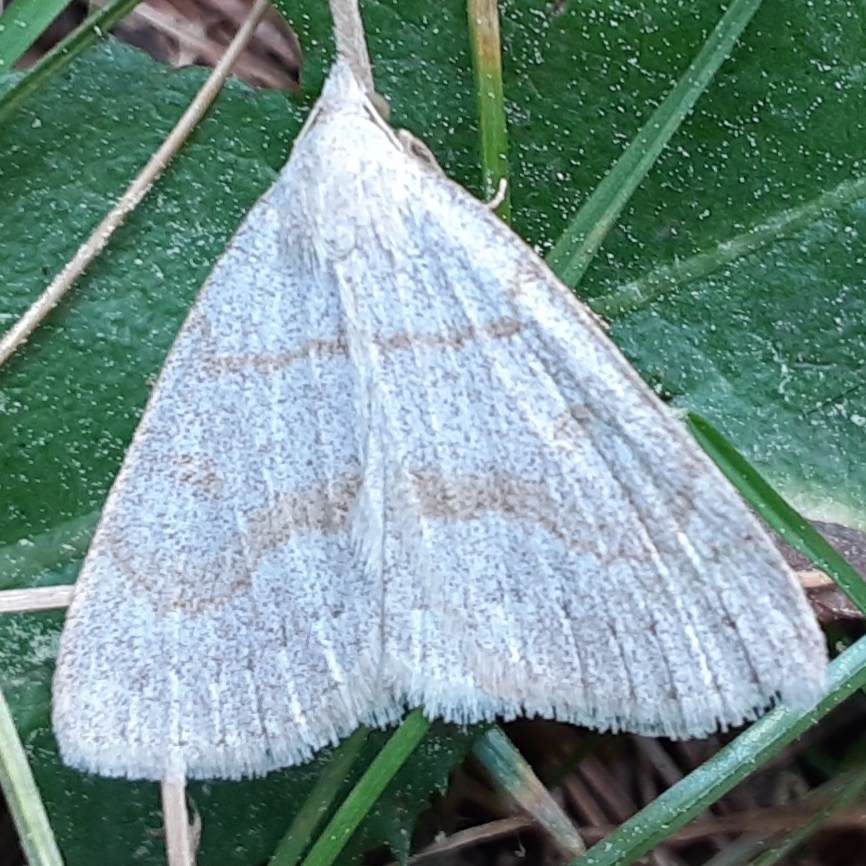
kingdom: Animalia
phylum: Arthropoda
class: Insecta
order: Lepidoptera
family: Erebidae
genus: Macrochilo
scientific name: Macrochilo morbidalis
